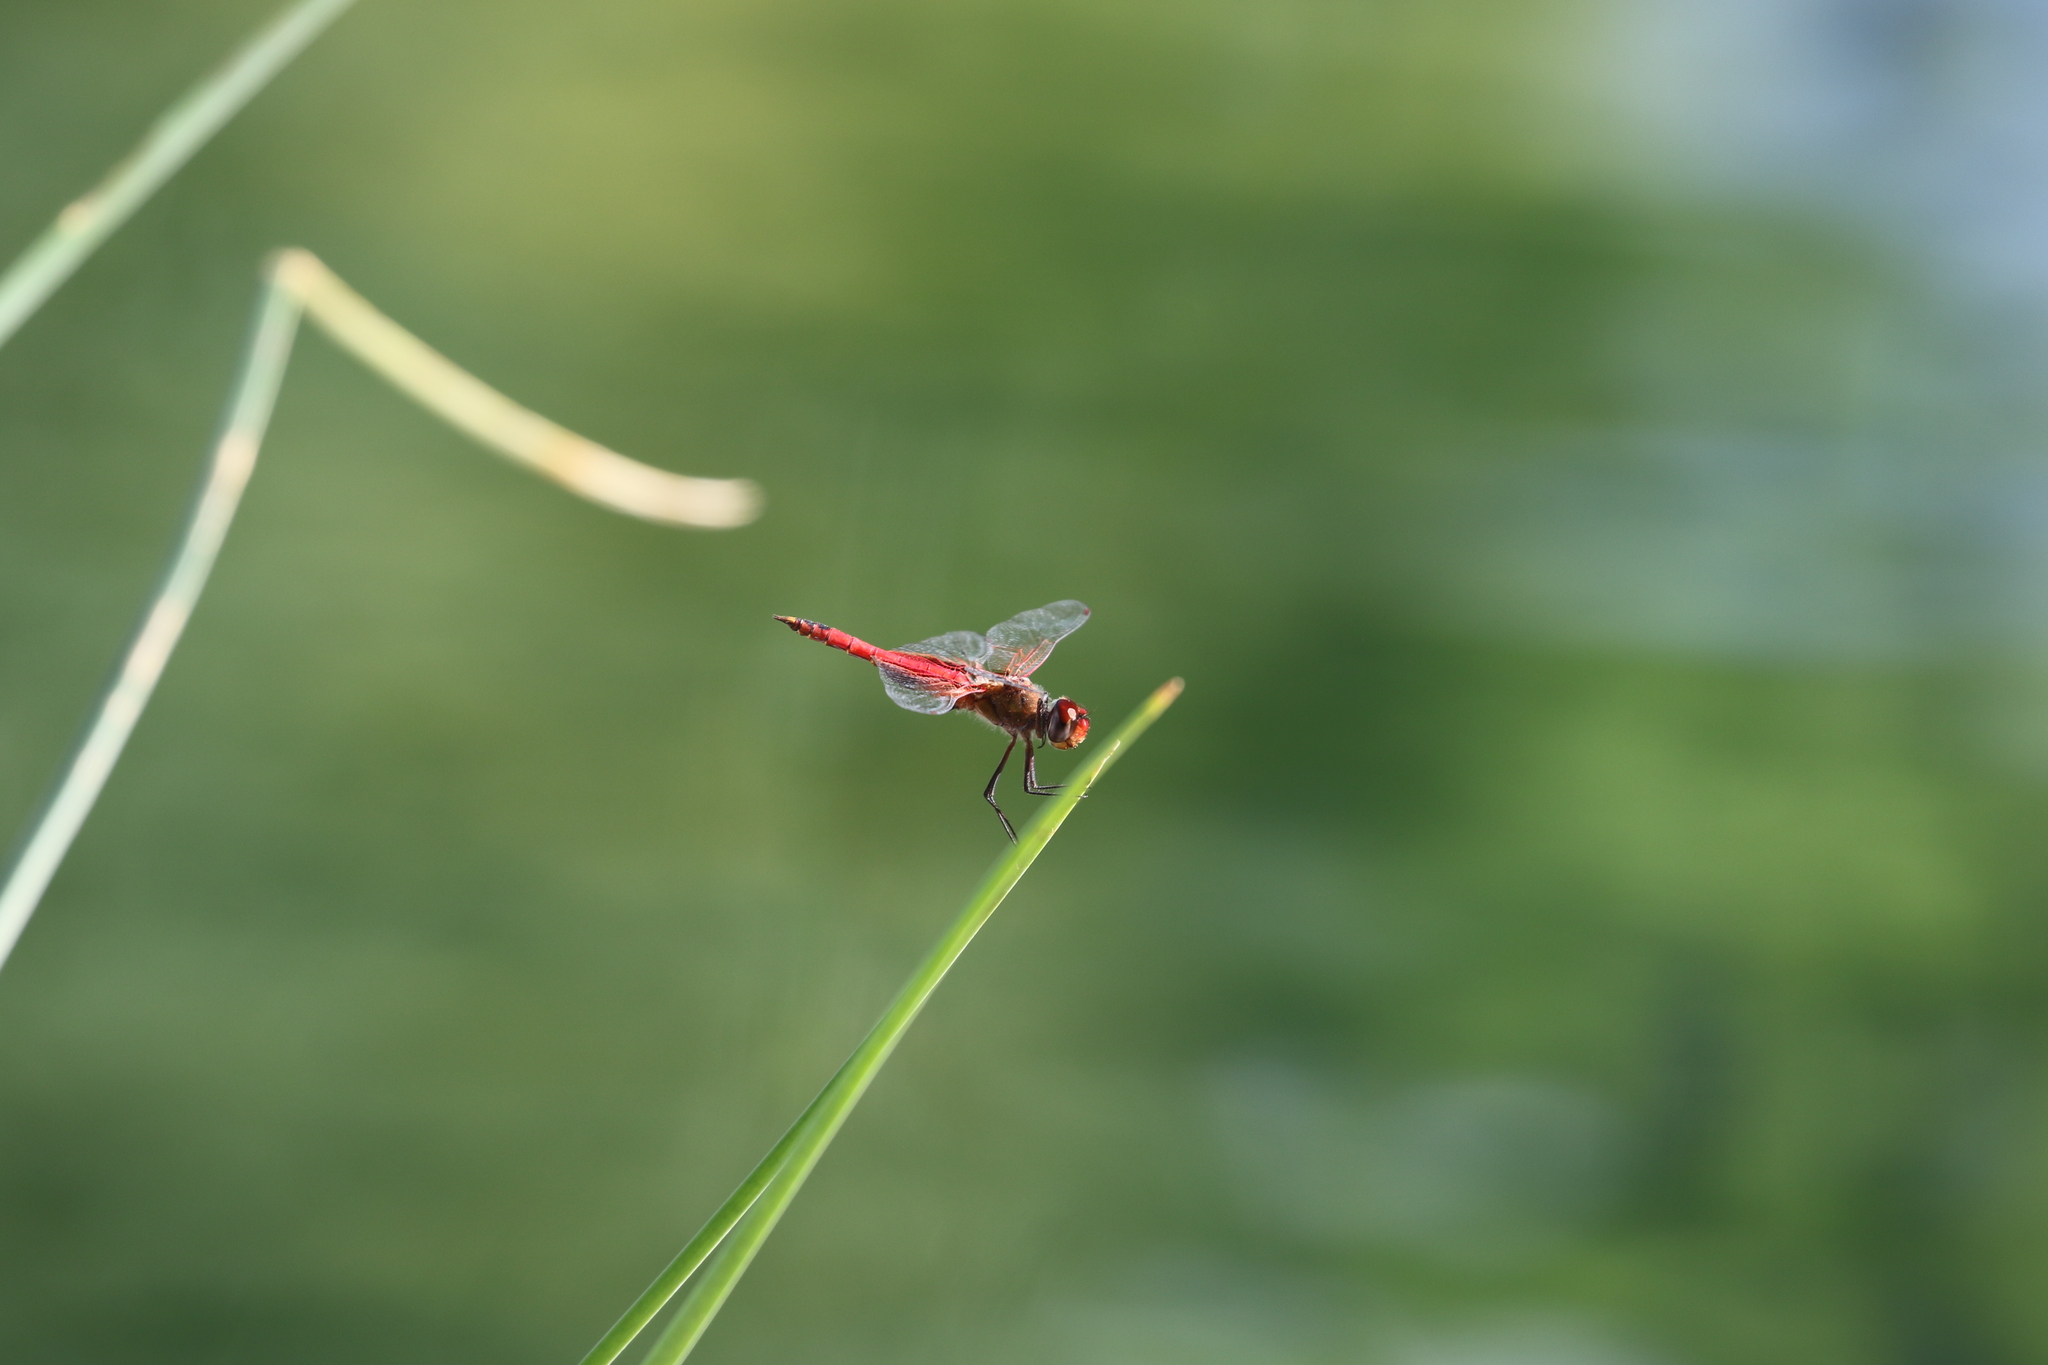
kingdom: Animalia
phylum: Arthropoda
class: Insecta
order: Odonata
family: Libellulidae
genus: Tramea
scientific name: Tramea onusta
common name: Red saddlebags
